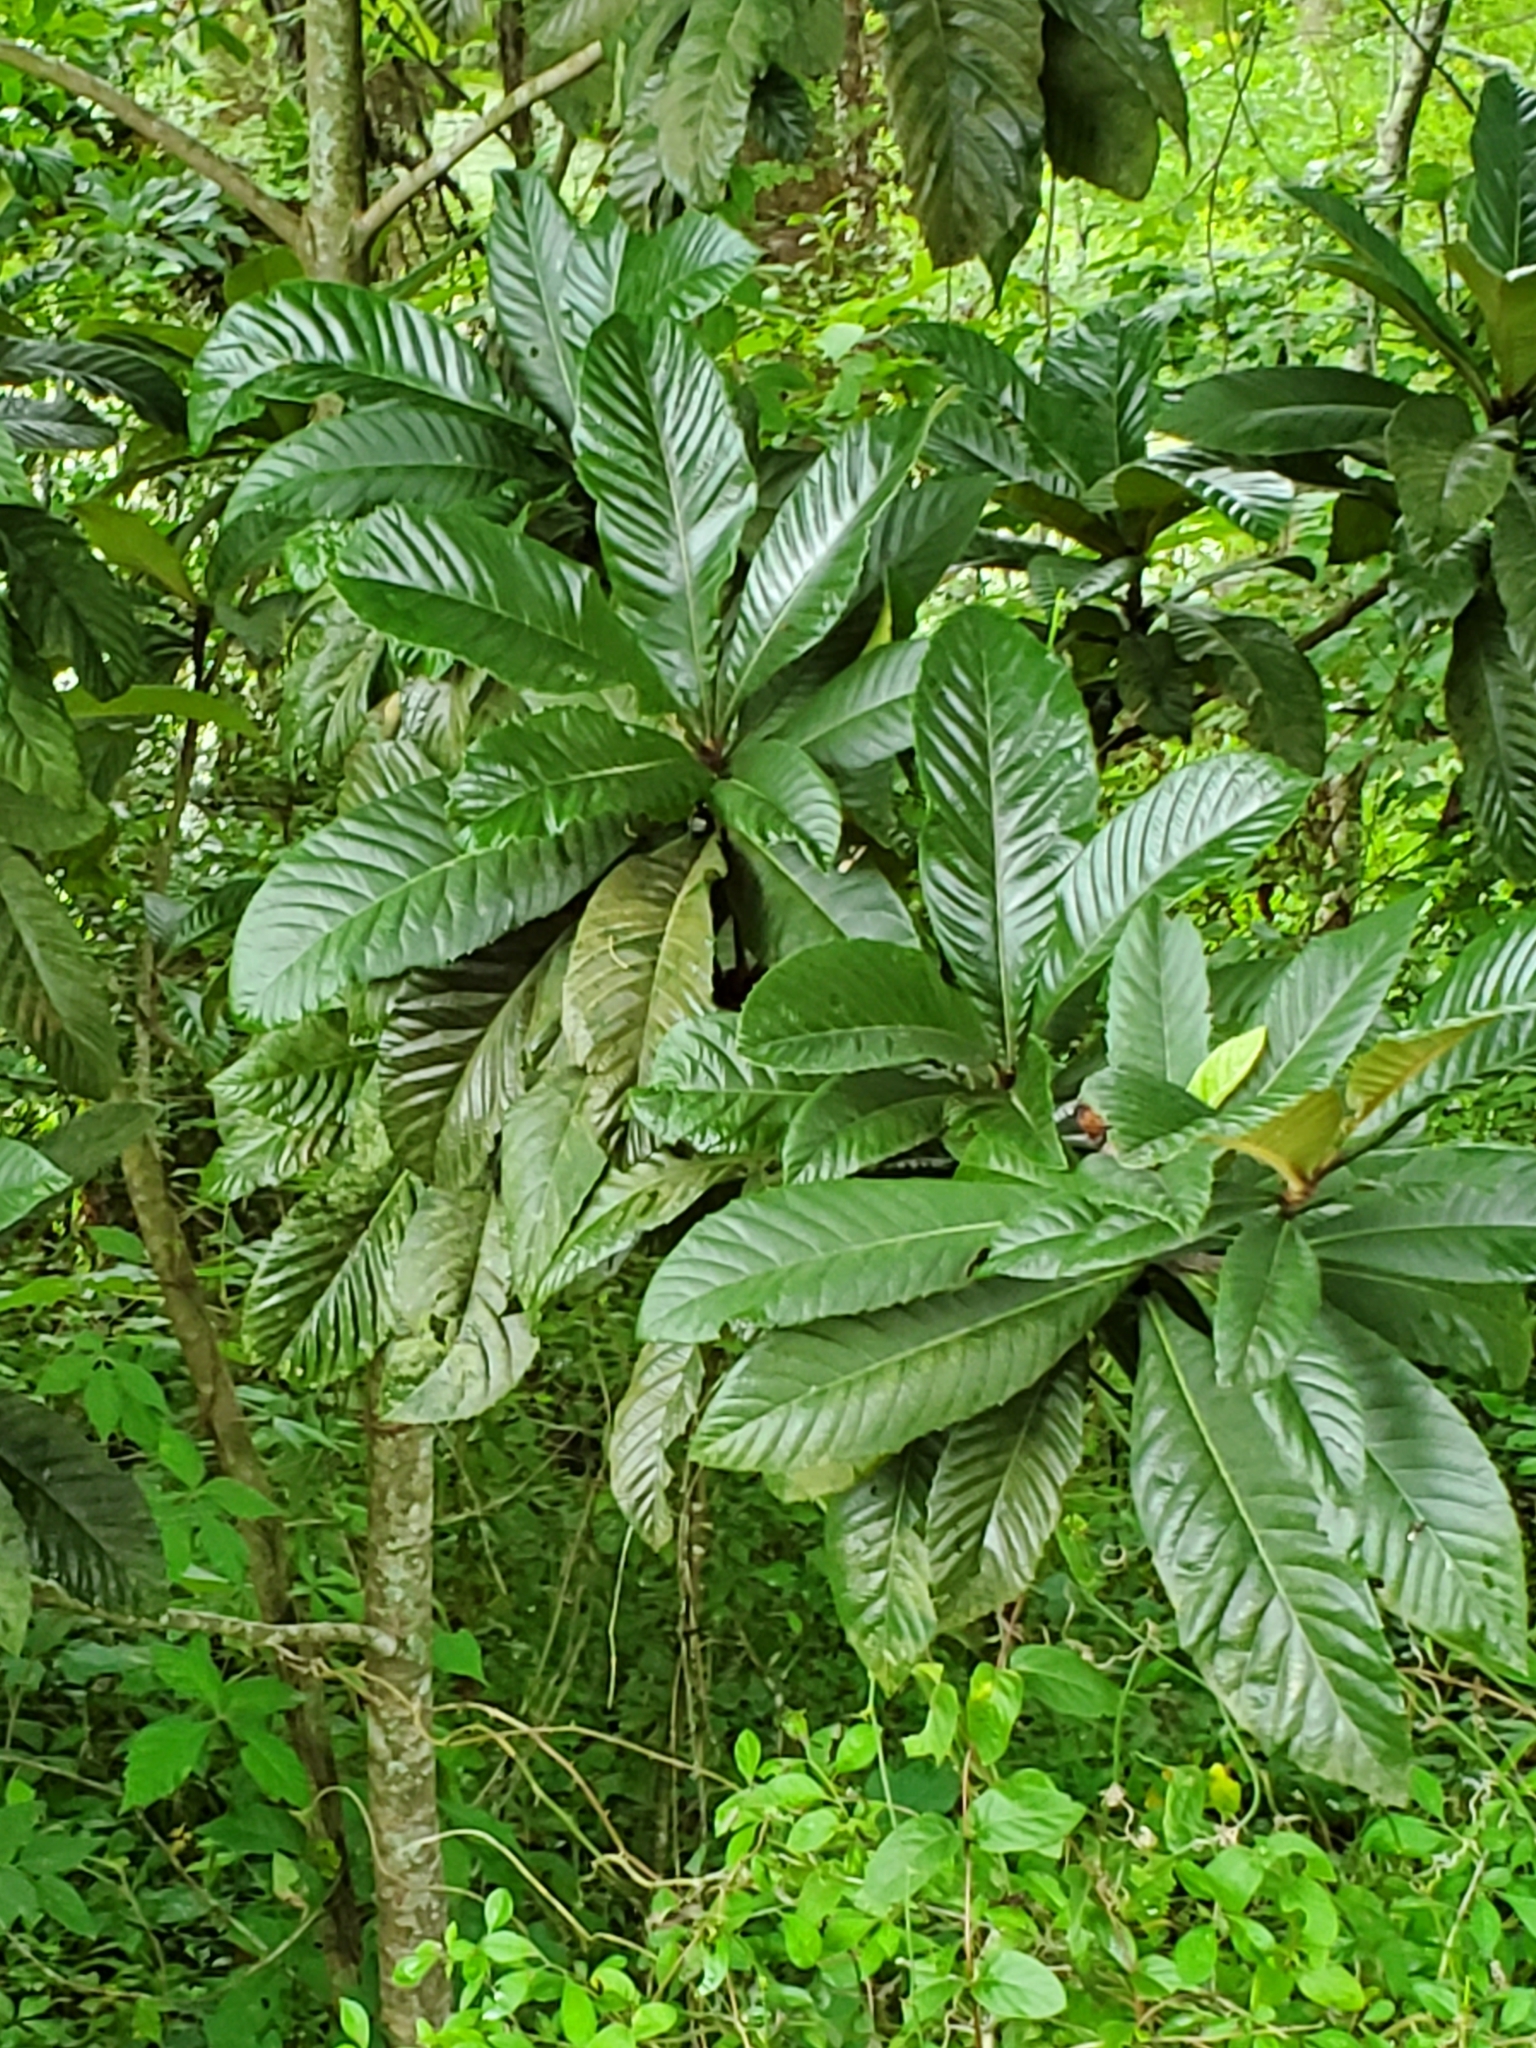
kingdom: Plantae
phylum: Tracheophyta
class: Magnoliopsida
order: Rosales
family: Rosaceae
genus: Rhaphiolepis
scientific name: Rhaphiolepis bibas
